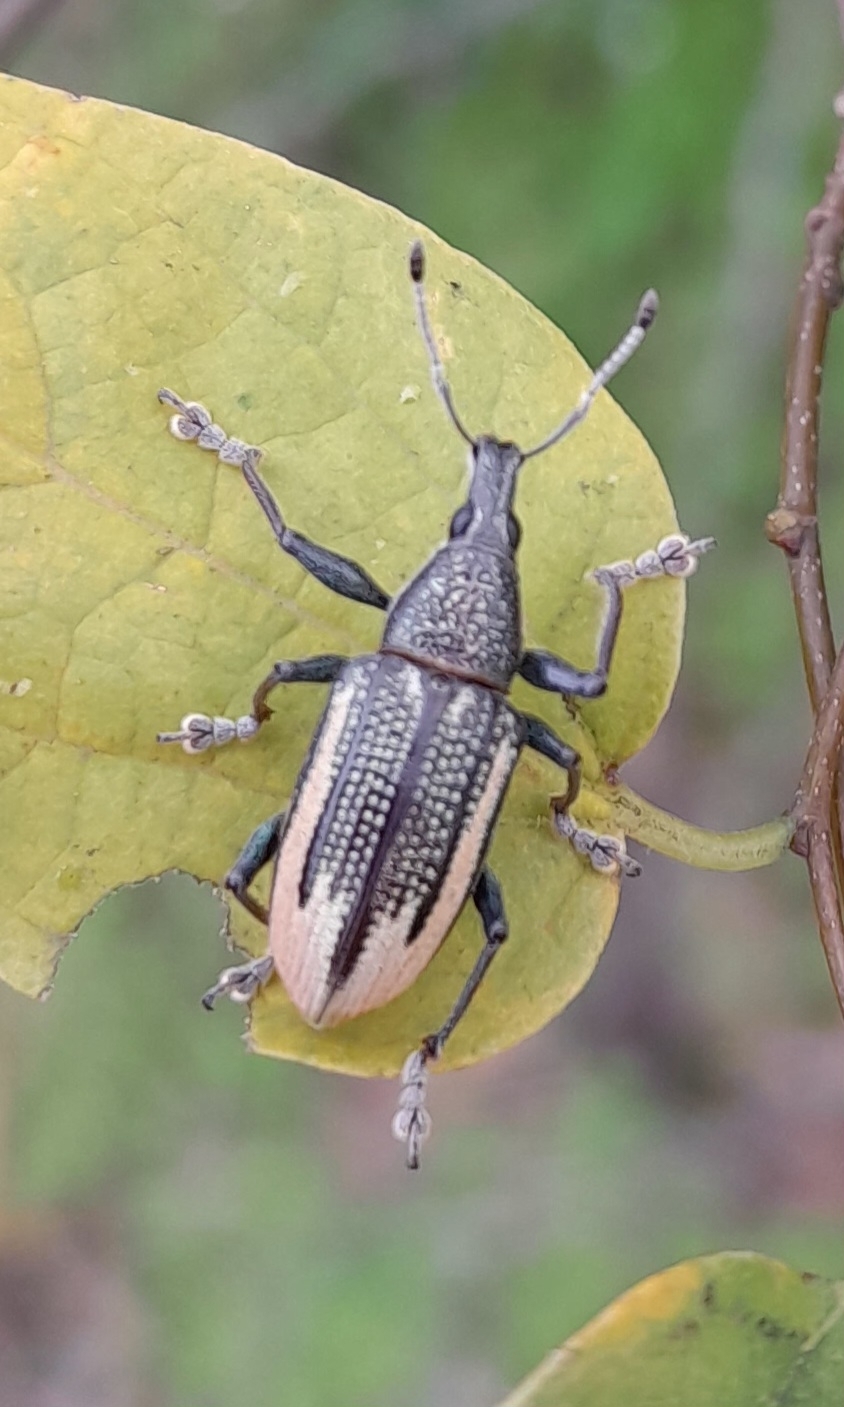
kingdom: Animalia
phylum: Arthropoda
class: Insecta
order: Coleoptera
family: Curculionidae
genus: Diaprepes
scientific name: Diaprepes abbreviatus
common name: Root weevil
